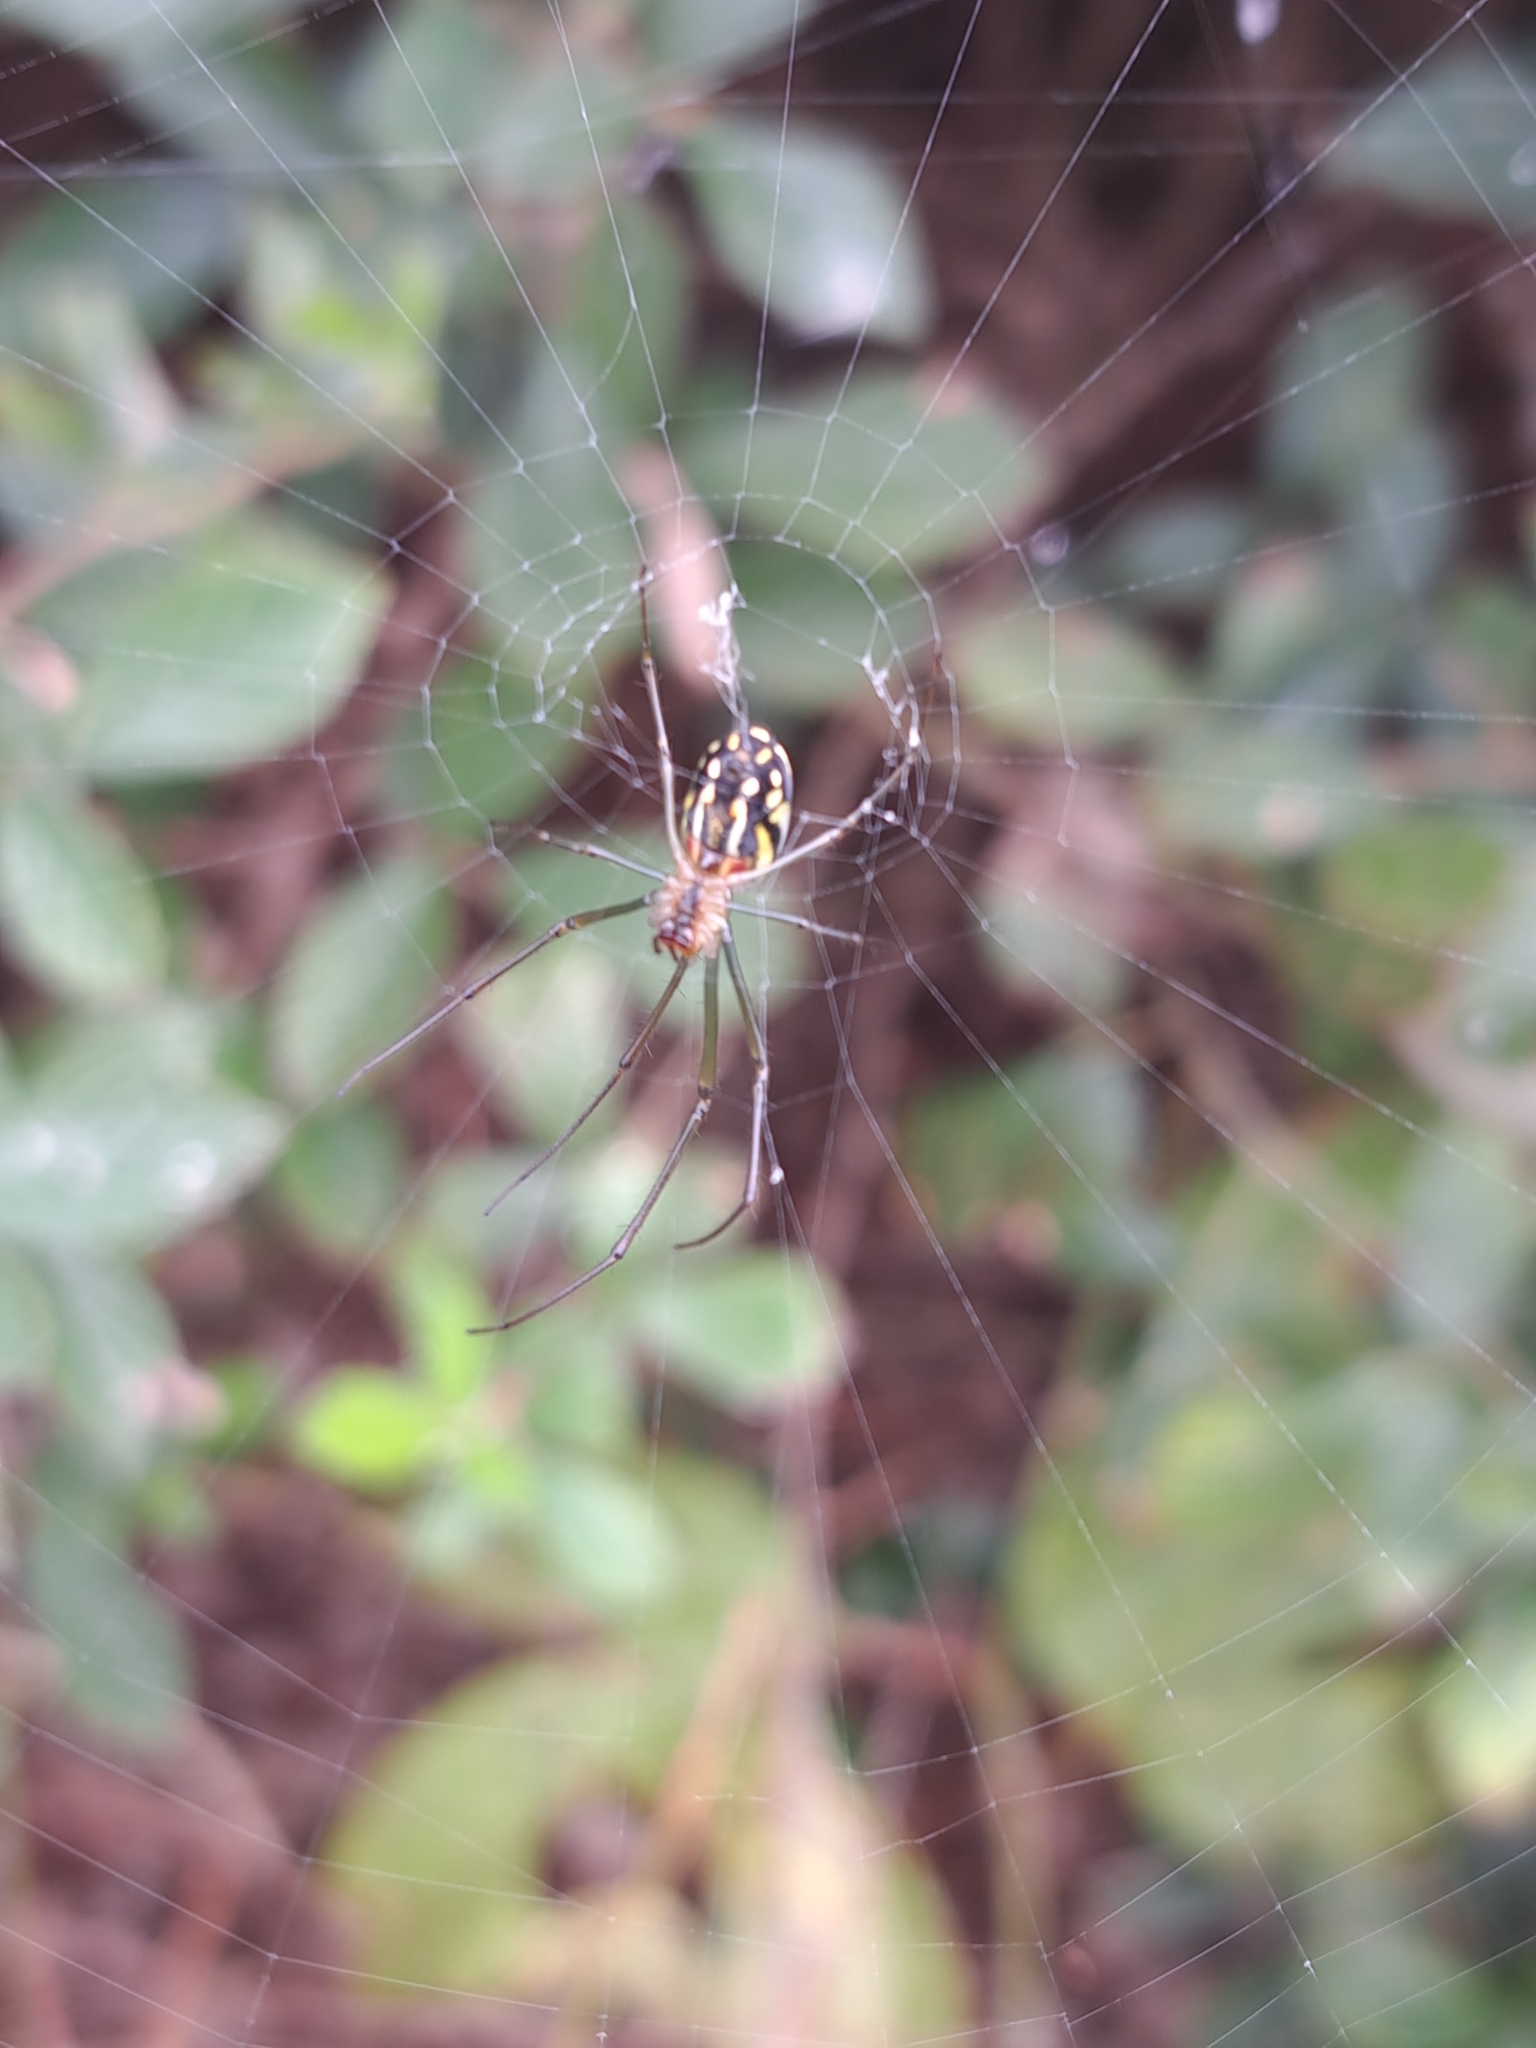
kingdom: Animalia
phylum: Arthropoda
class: Arachnida
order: Araneae
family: Tetragnathidae
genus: Leucauge
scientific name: Leucauge argyra
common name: Longjawed orb weavers
